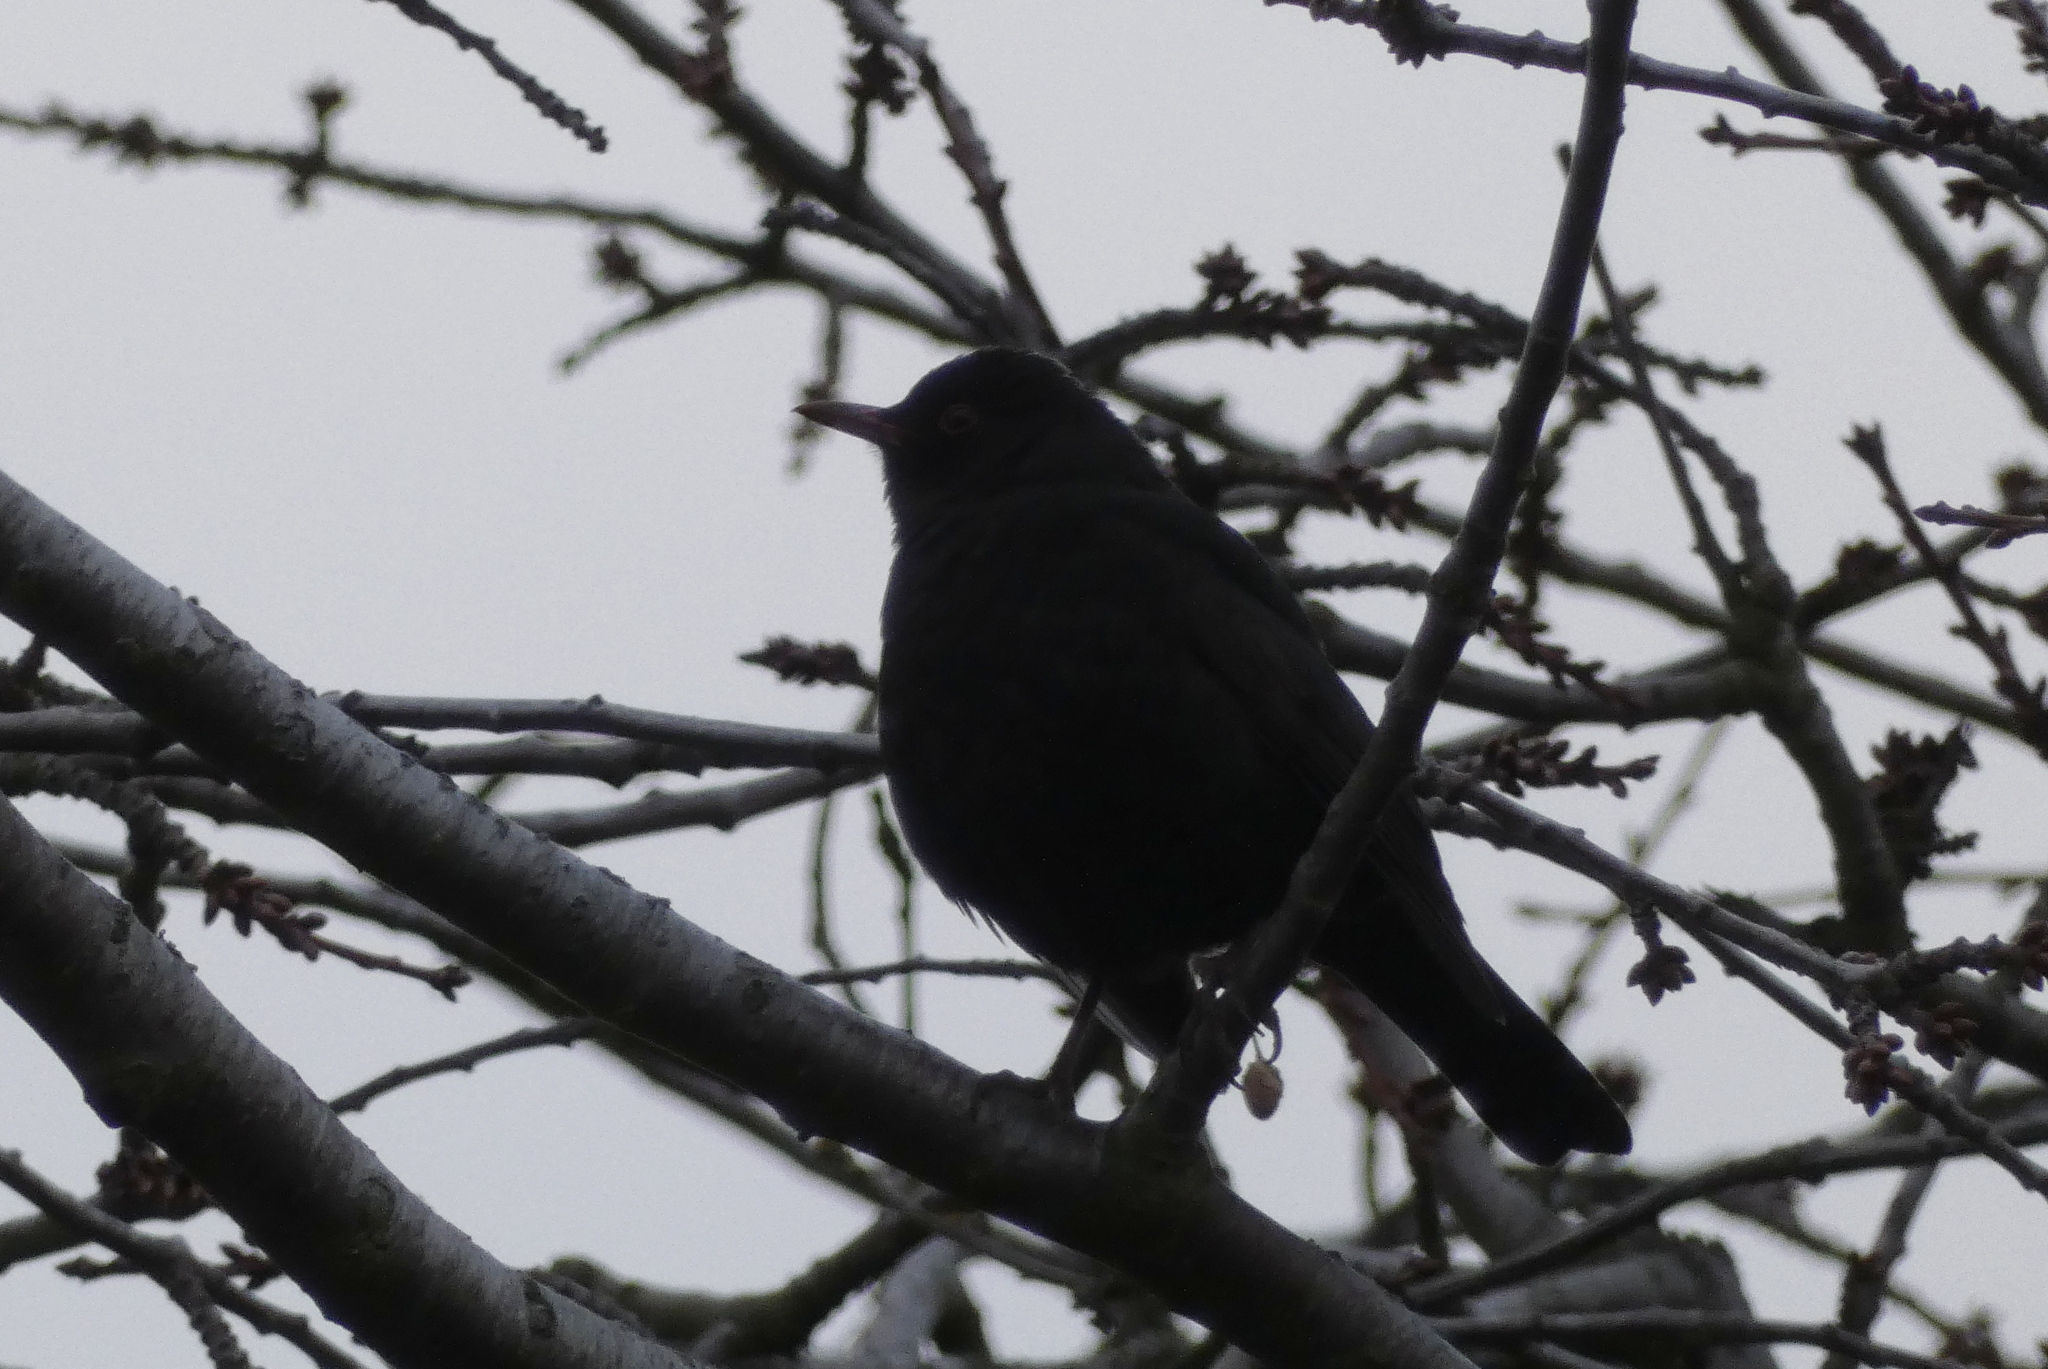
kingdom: Animalia
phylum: Chordata
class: Aves
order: Passeriformes
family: Turdidae
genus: Turdus
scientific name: Turdus merula
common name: Common blackbird
